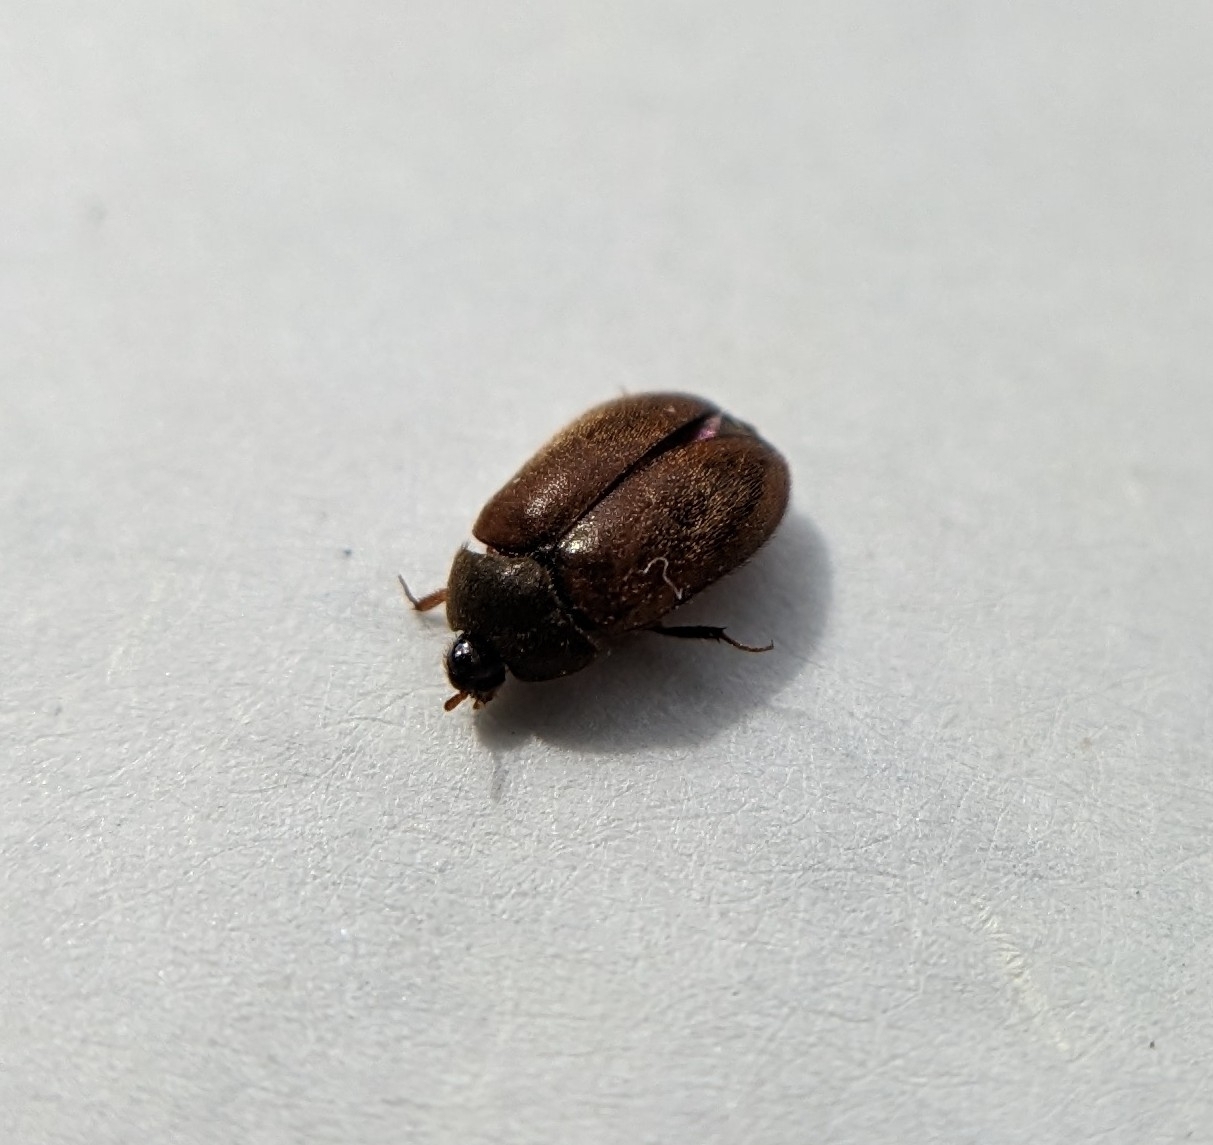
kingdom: Animalia
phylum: Arthropoda
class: Insecta
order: Coleoptera
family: Dermestidae
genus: Attagenus
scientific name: Attagenus smirnovi
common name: Brown carpet beetle
